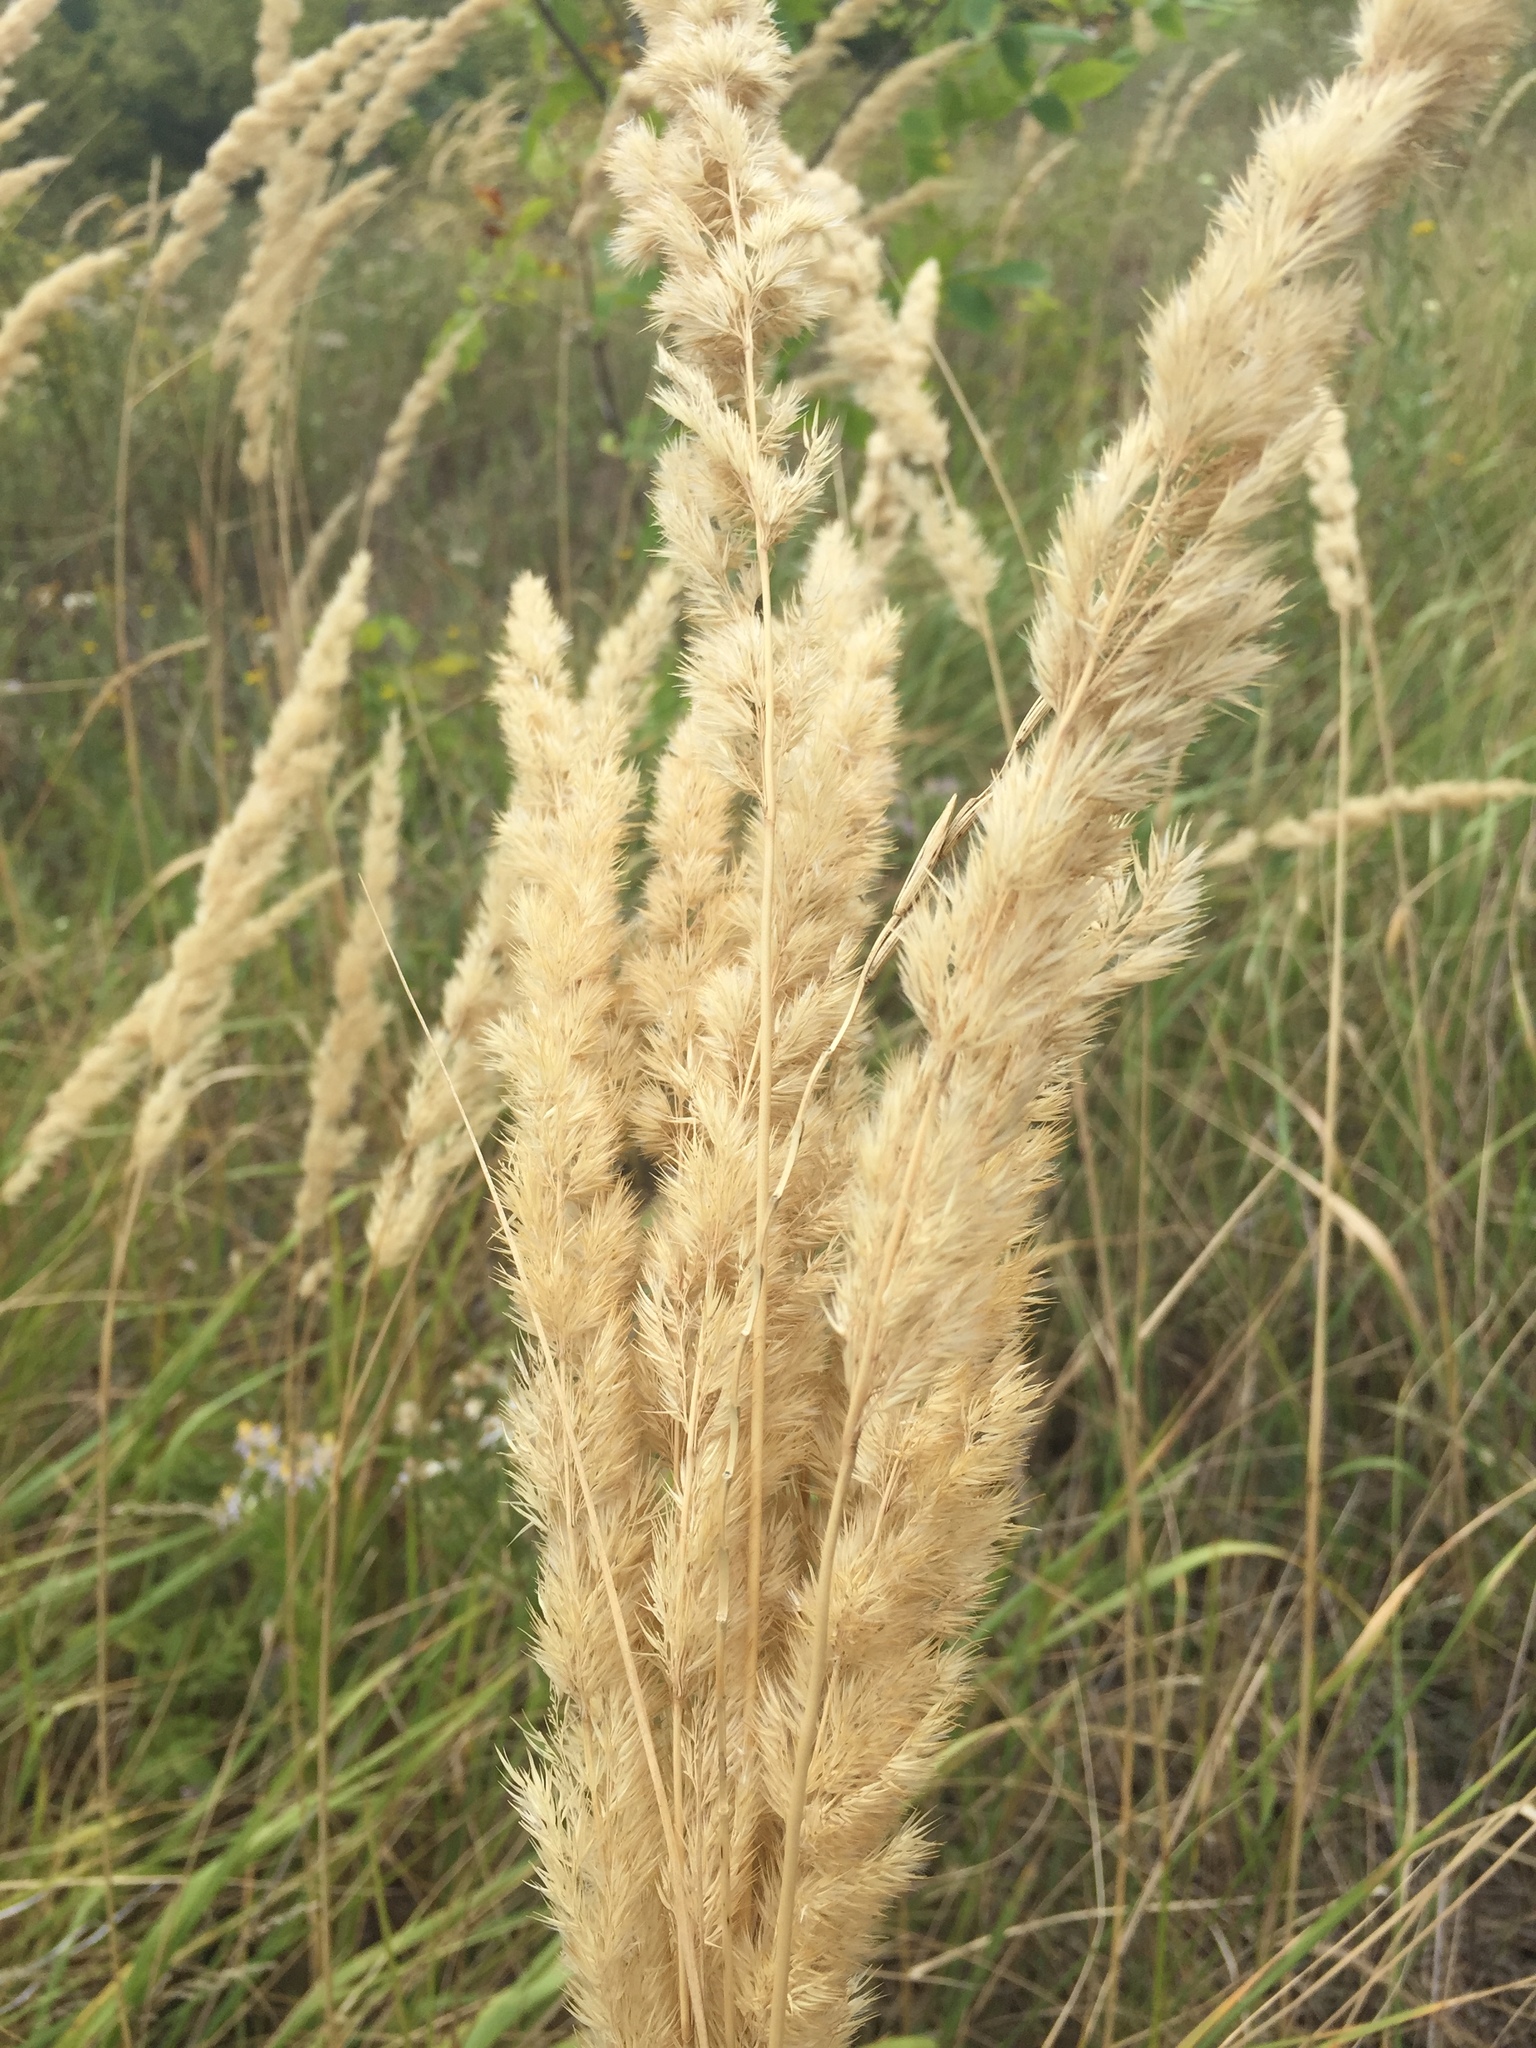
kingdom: Plantae
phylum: Tracheophyta
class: Liliopsida
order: Poales
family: Poaceae
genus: Calamagrostis
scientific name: Calamagrostis epigejos
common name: Wood small-reed
